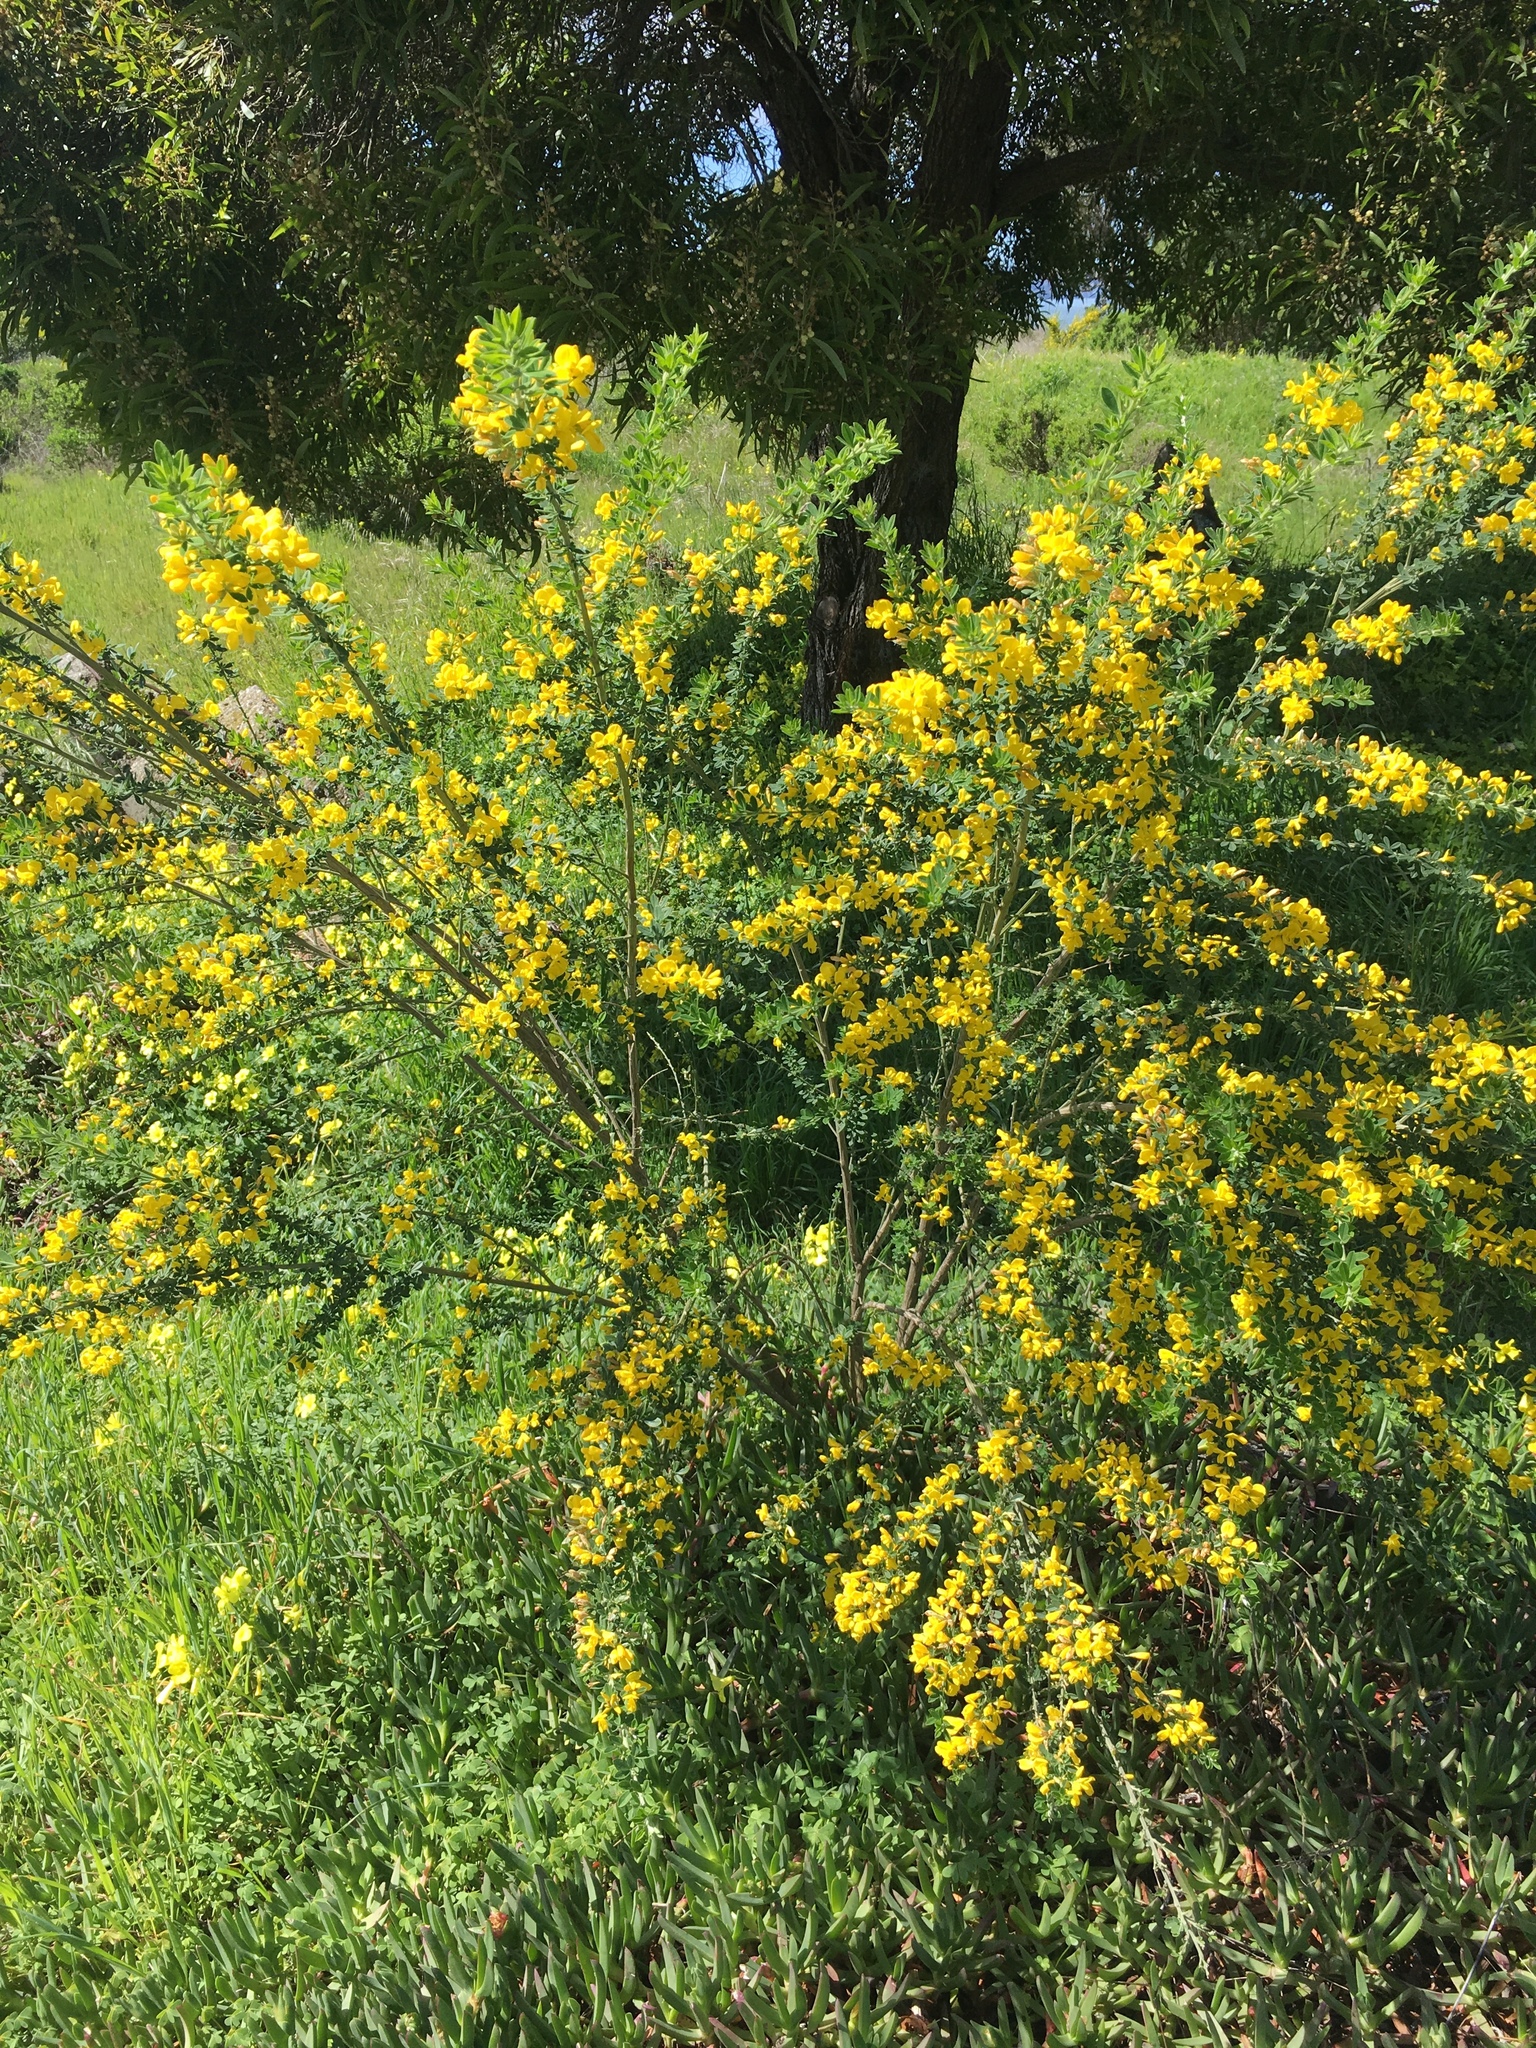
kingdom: Plantae
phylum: Tracheophyta
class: Magnoliopsida
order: Fabales
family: Fabaceae
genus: Genista
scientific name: Genista monspessulana
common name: Montpellier broom
